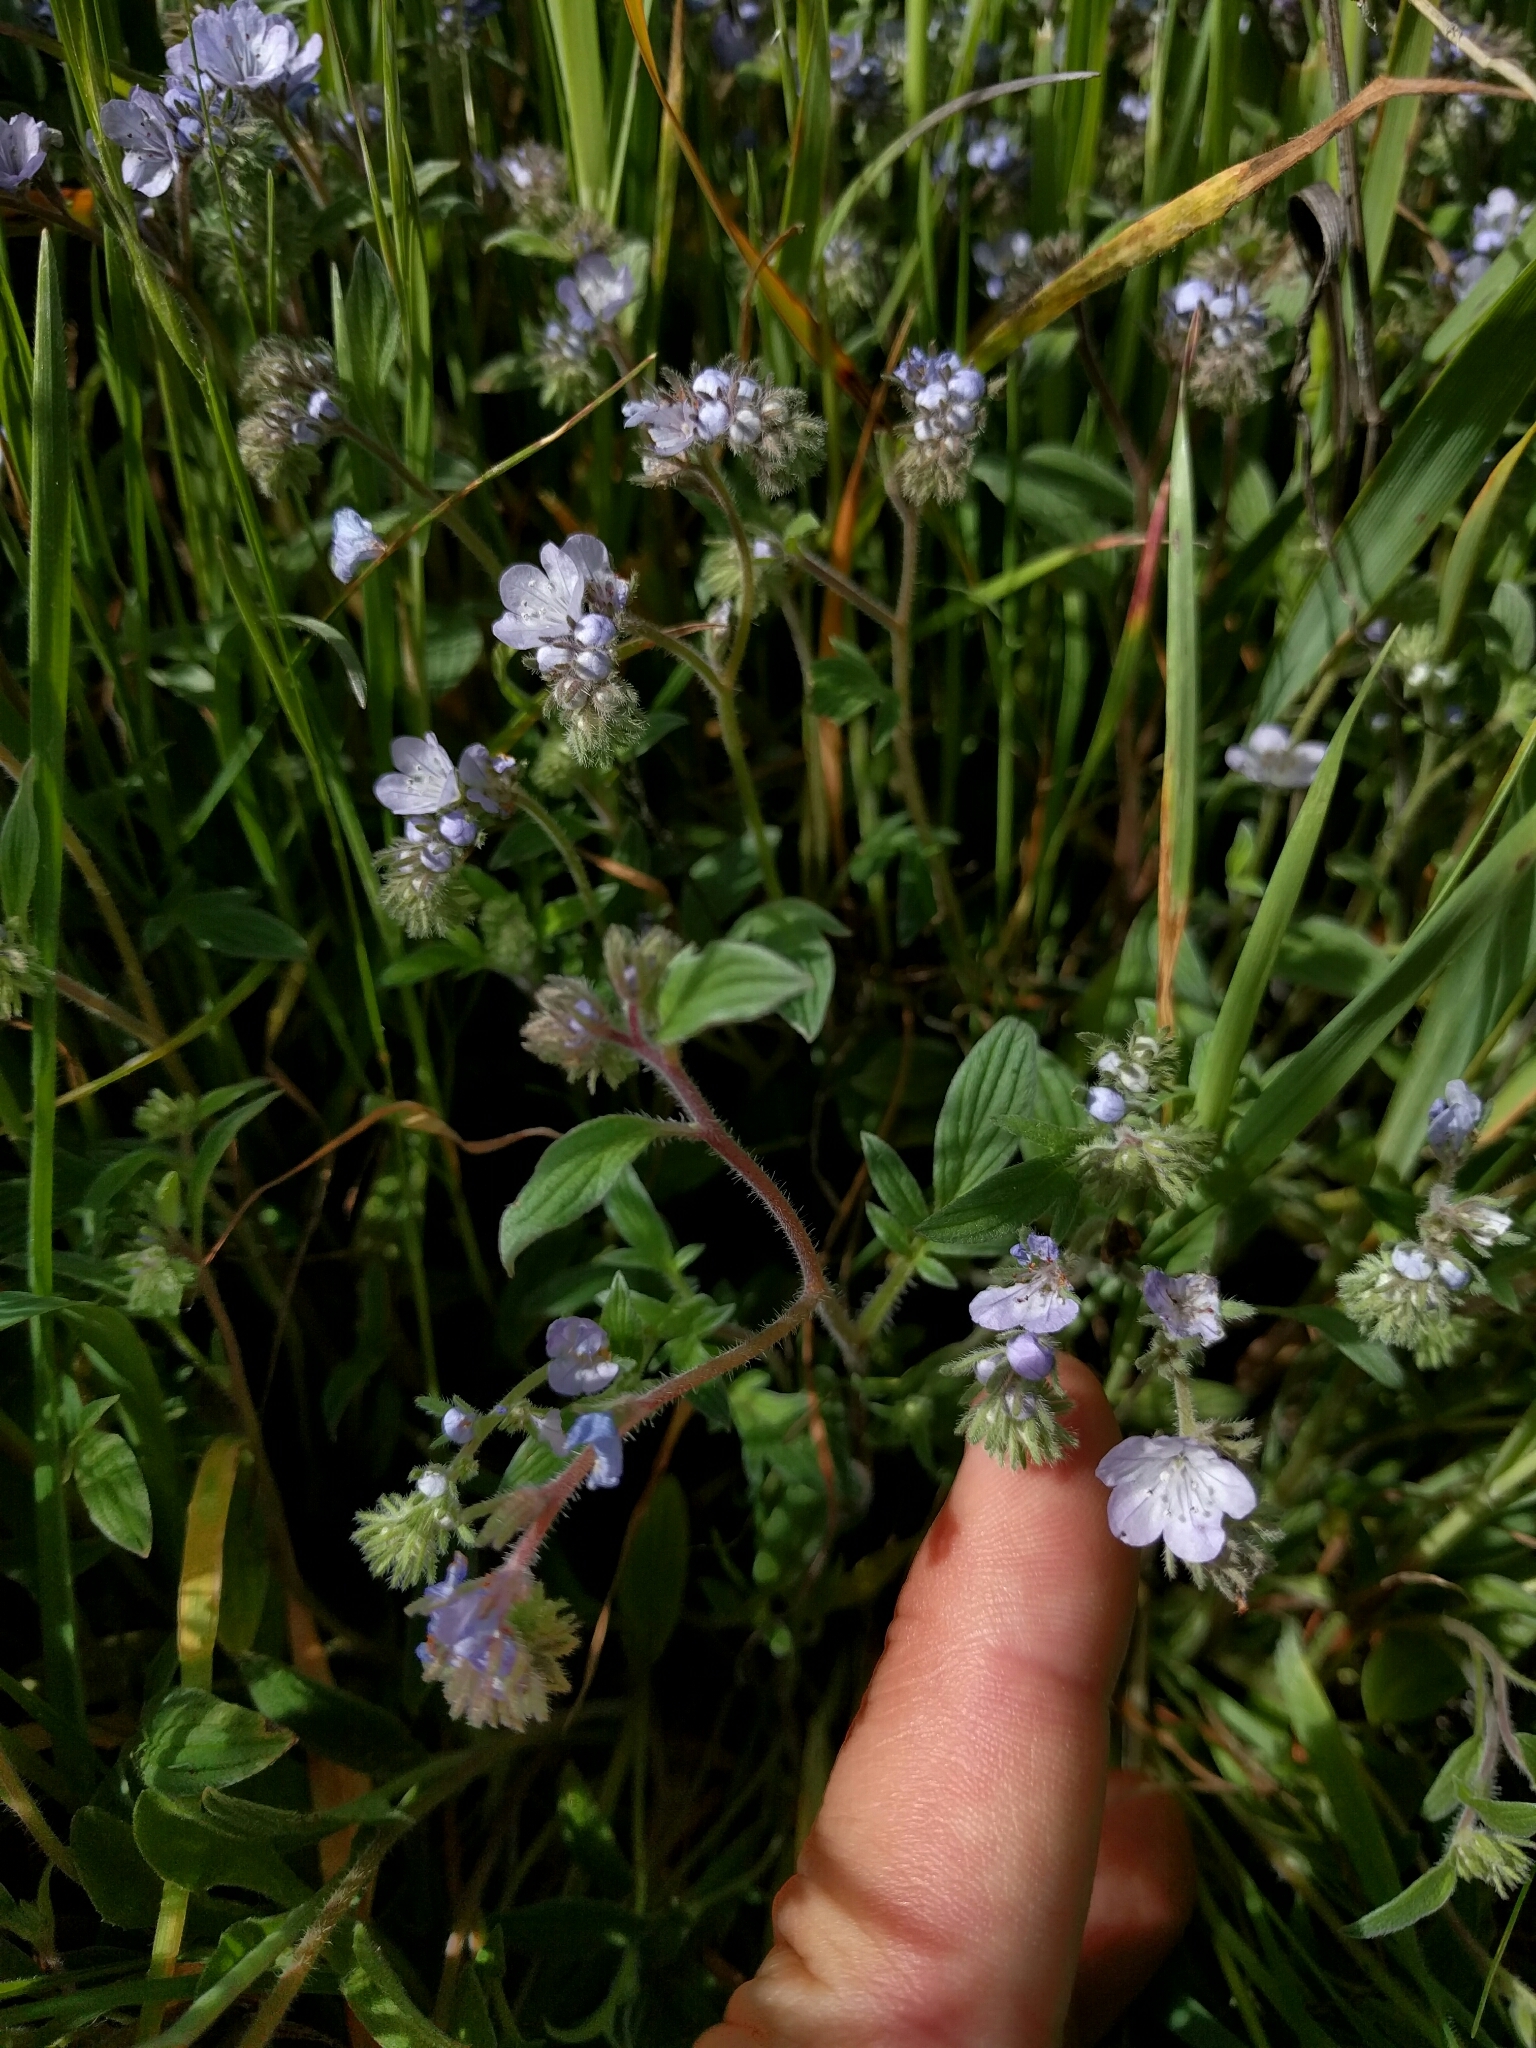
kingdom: Plantae
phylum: Tracheophyta
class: Magnoliopsida
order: Boraginales
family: Hydrophyllaceae
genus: Phacelia
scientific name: Phacelia breweri
